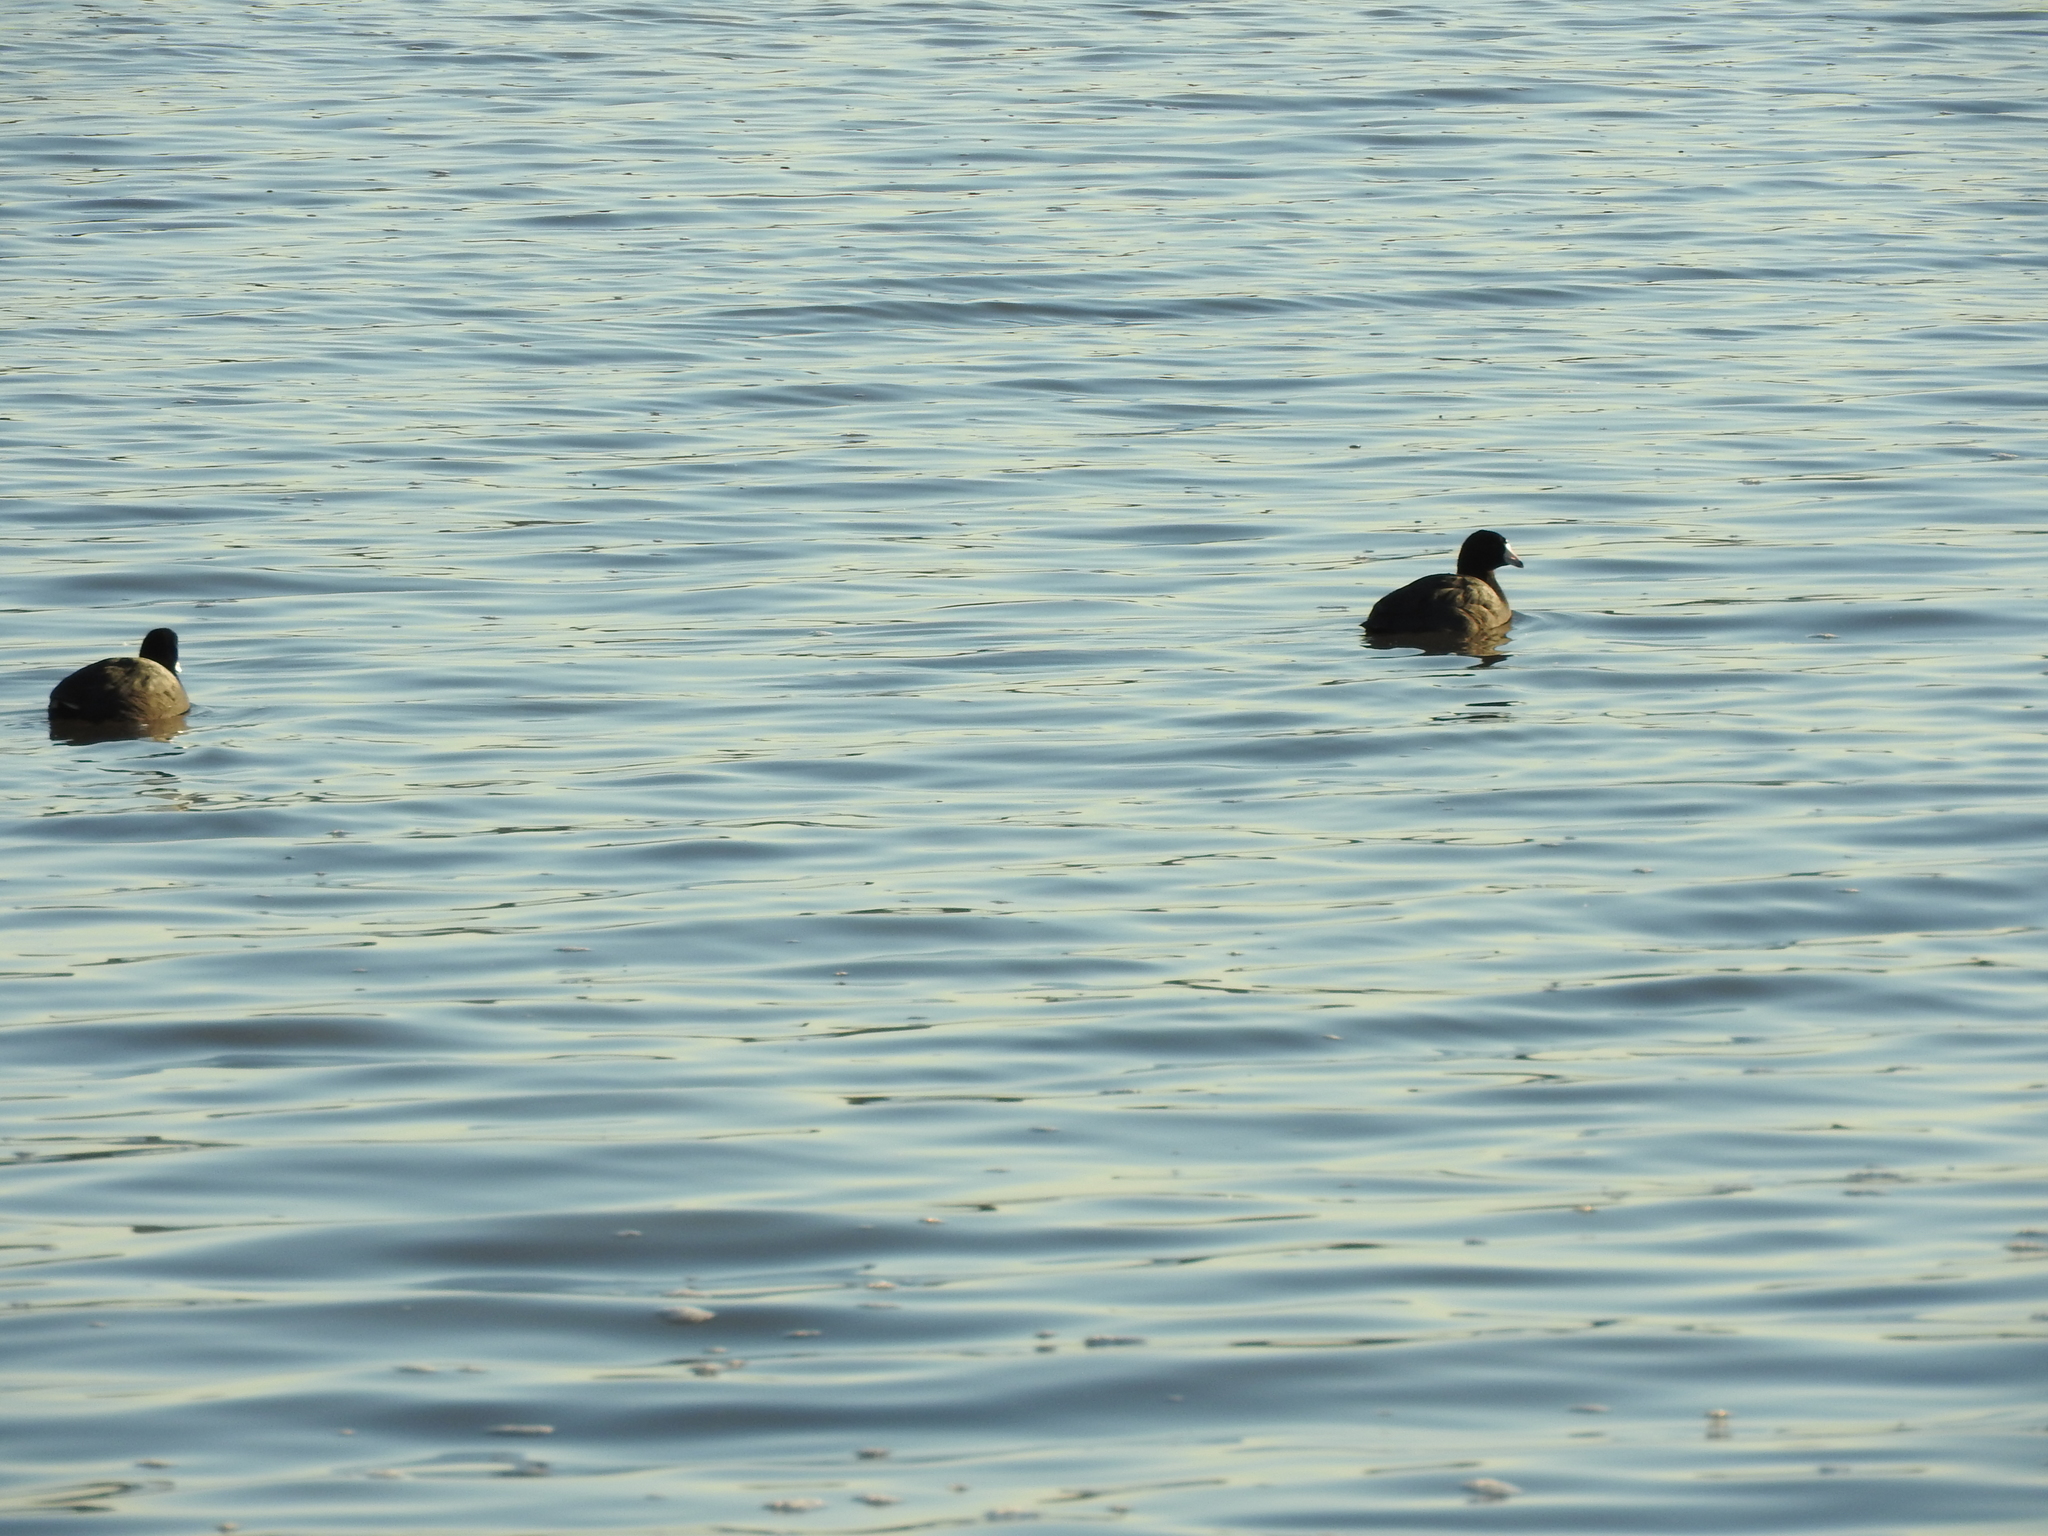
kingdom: Animalia
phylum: Chordata
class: Aves
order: Gruiformes
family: Rallidae
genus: Fulica
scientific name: Fulica americana
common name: American coot
